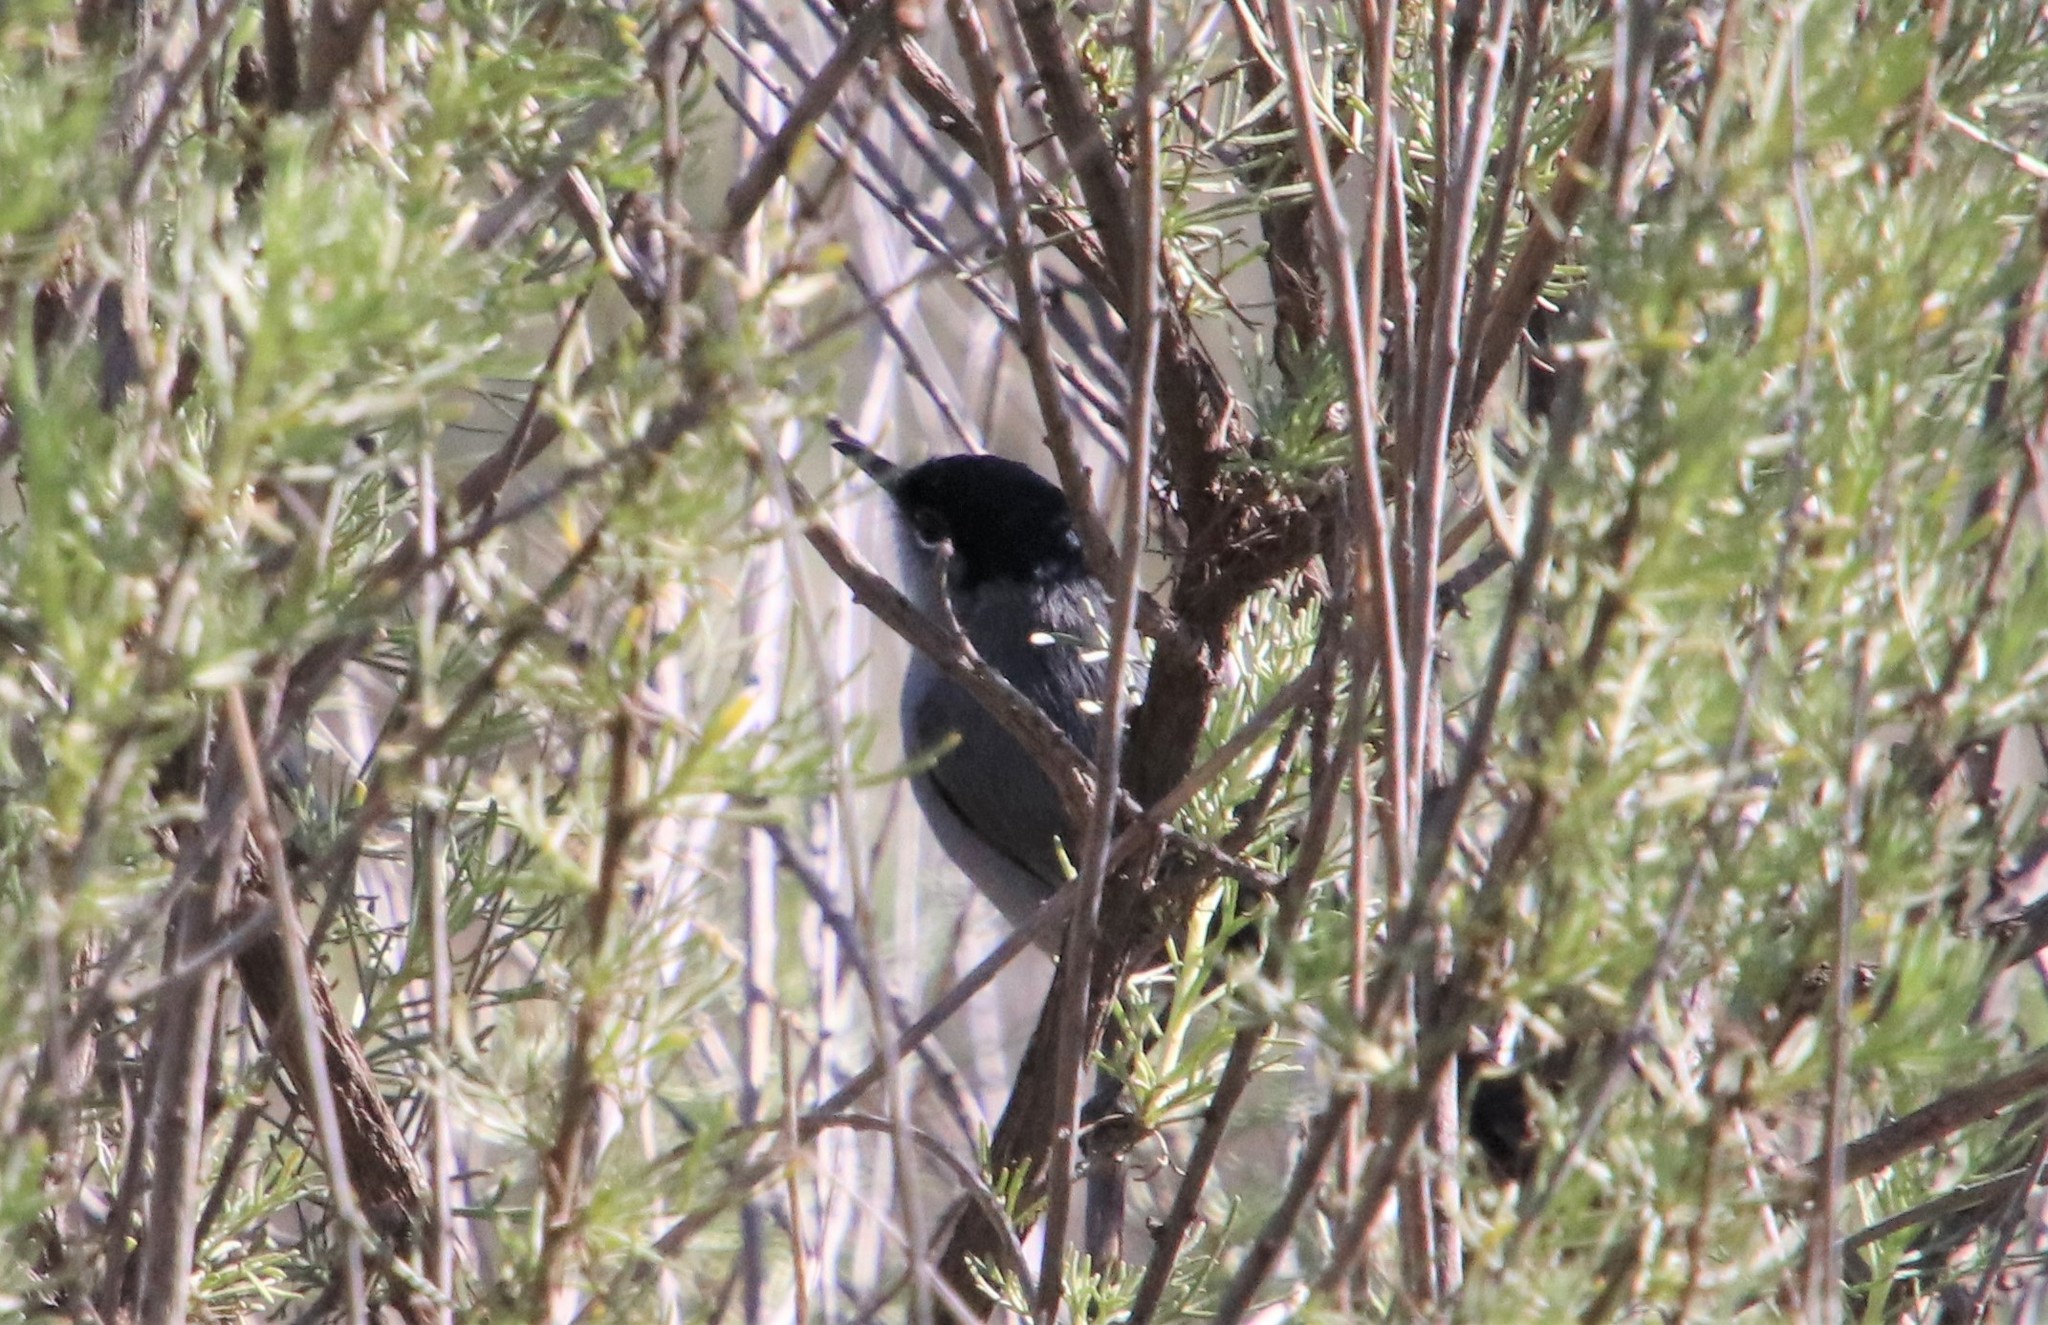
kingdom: Animalia
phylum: Chordata
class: Aves
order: Passeriformes
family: Polioptilidae
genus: Polioptila
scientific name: Polioptila californica
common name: California gnatcatcher
